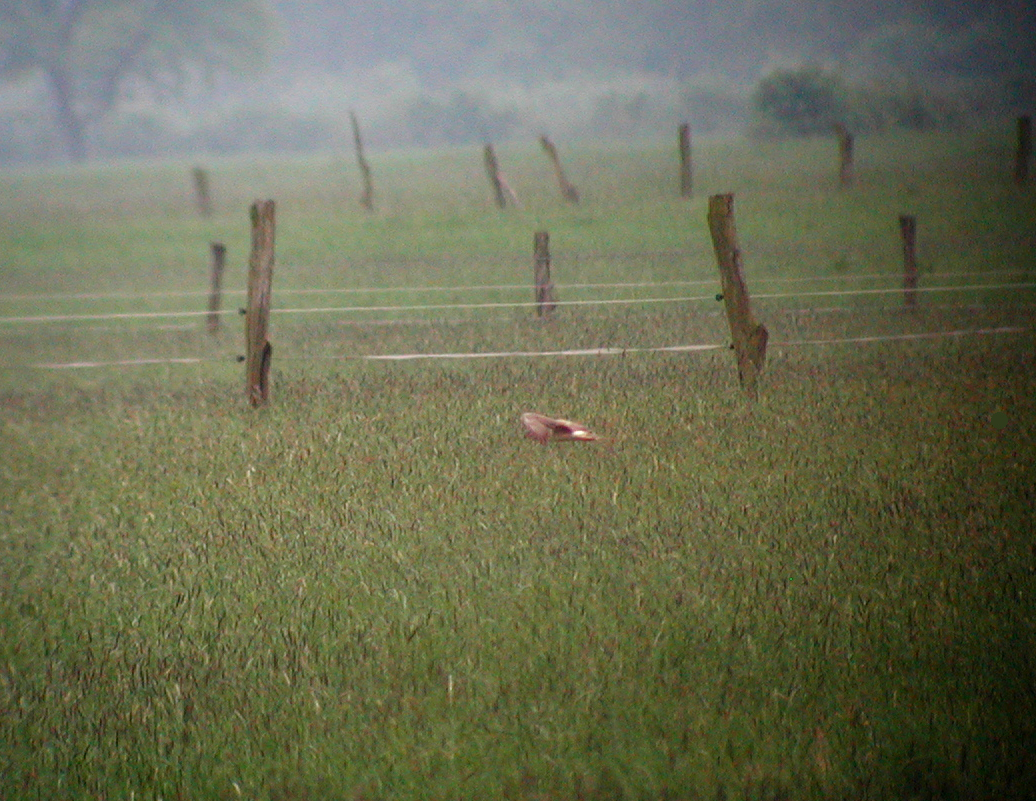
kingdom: Animalia
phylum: Chordata
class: Aves
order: Accipitriformes
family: Accipitridae
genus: Circus
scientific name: Circus macrourus
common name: Pallid harrier
